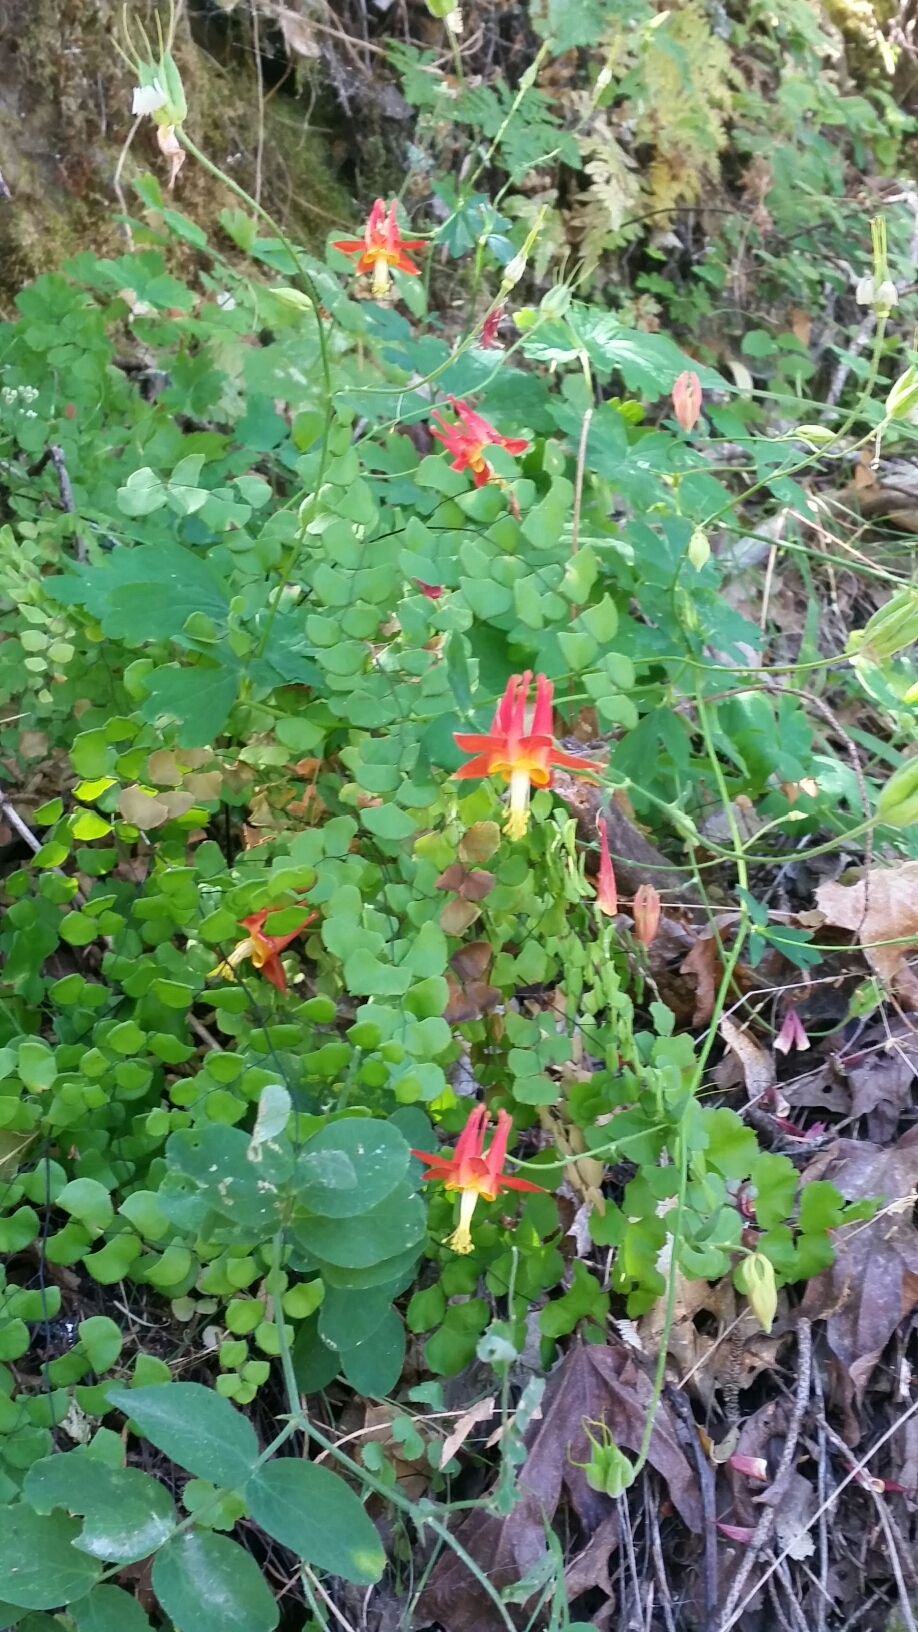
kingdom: Plantae
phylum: Tracheophyta
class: Magnoliopsida
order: Ranunculales
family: Ranunculaceae
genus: Aquilegia
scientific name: Aquilegia formosa
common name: Sitka columbine
